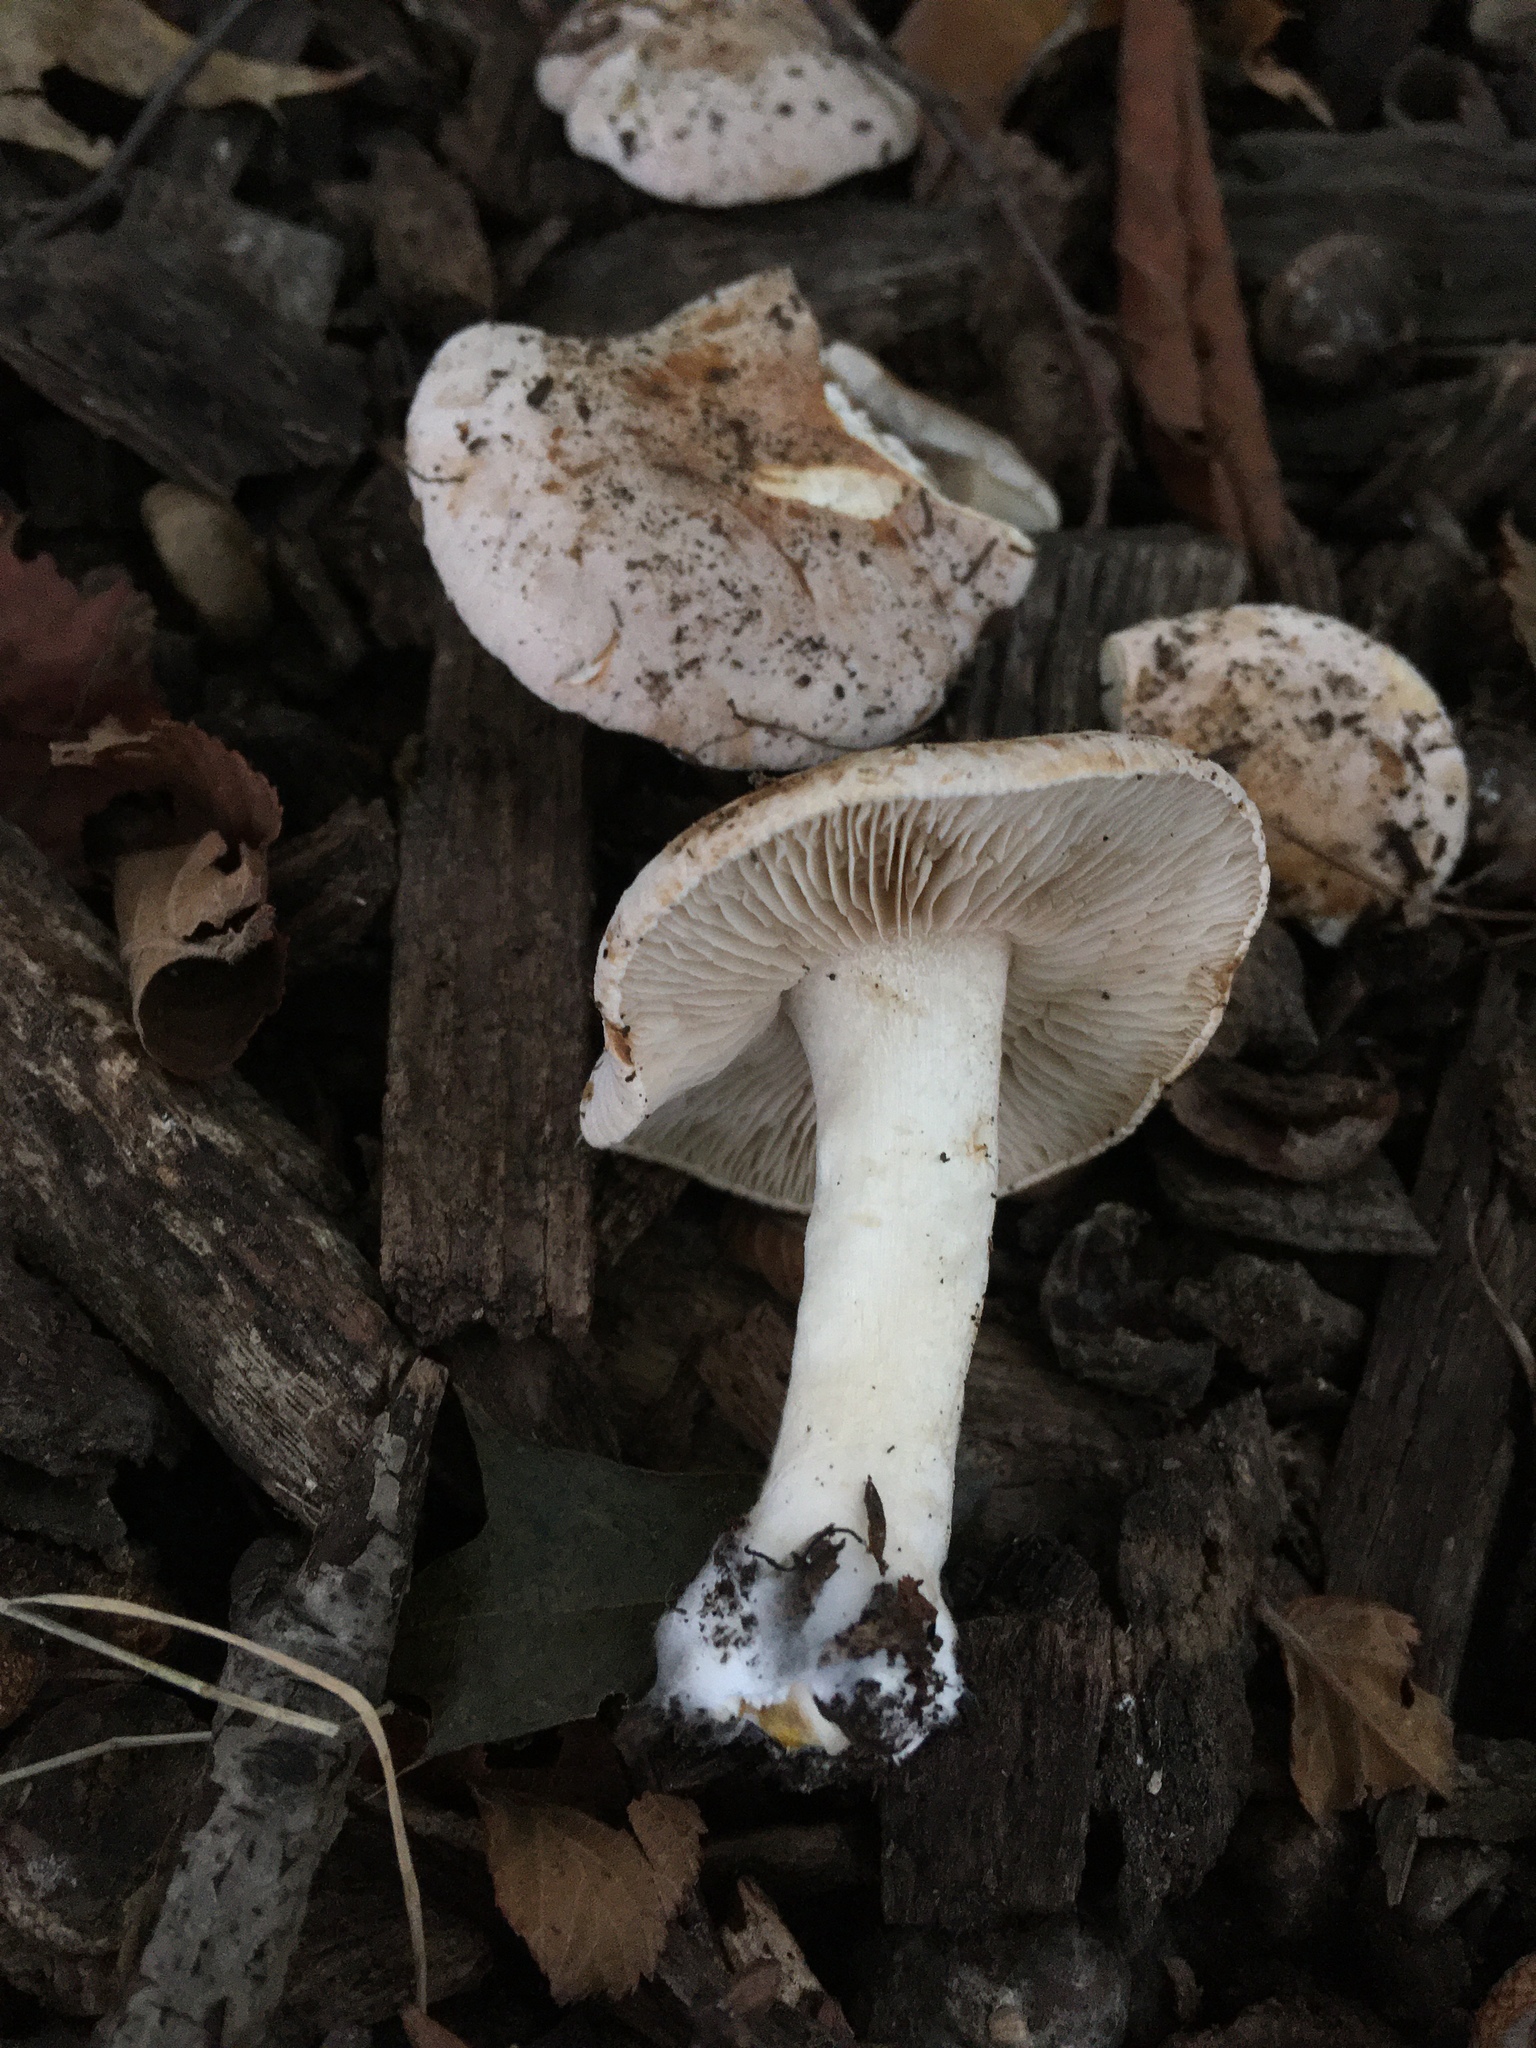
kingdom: Fungi
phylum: Basidiomycota
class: Agaricomycetes
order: Agaricales
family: Hymenogastraceae
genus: Hebeloma
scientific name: Hebeloma sordidum
